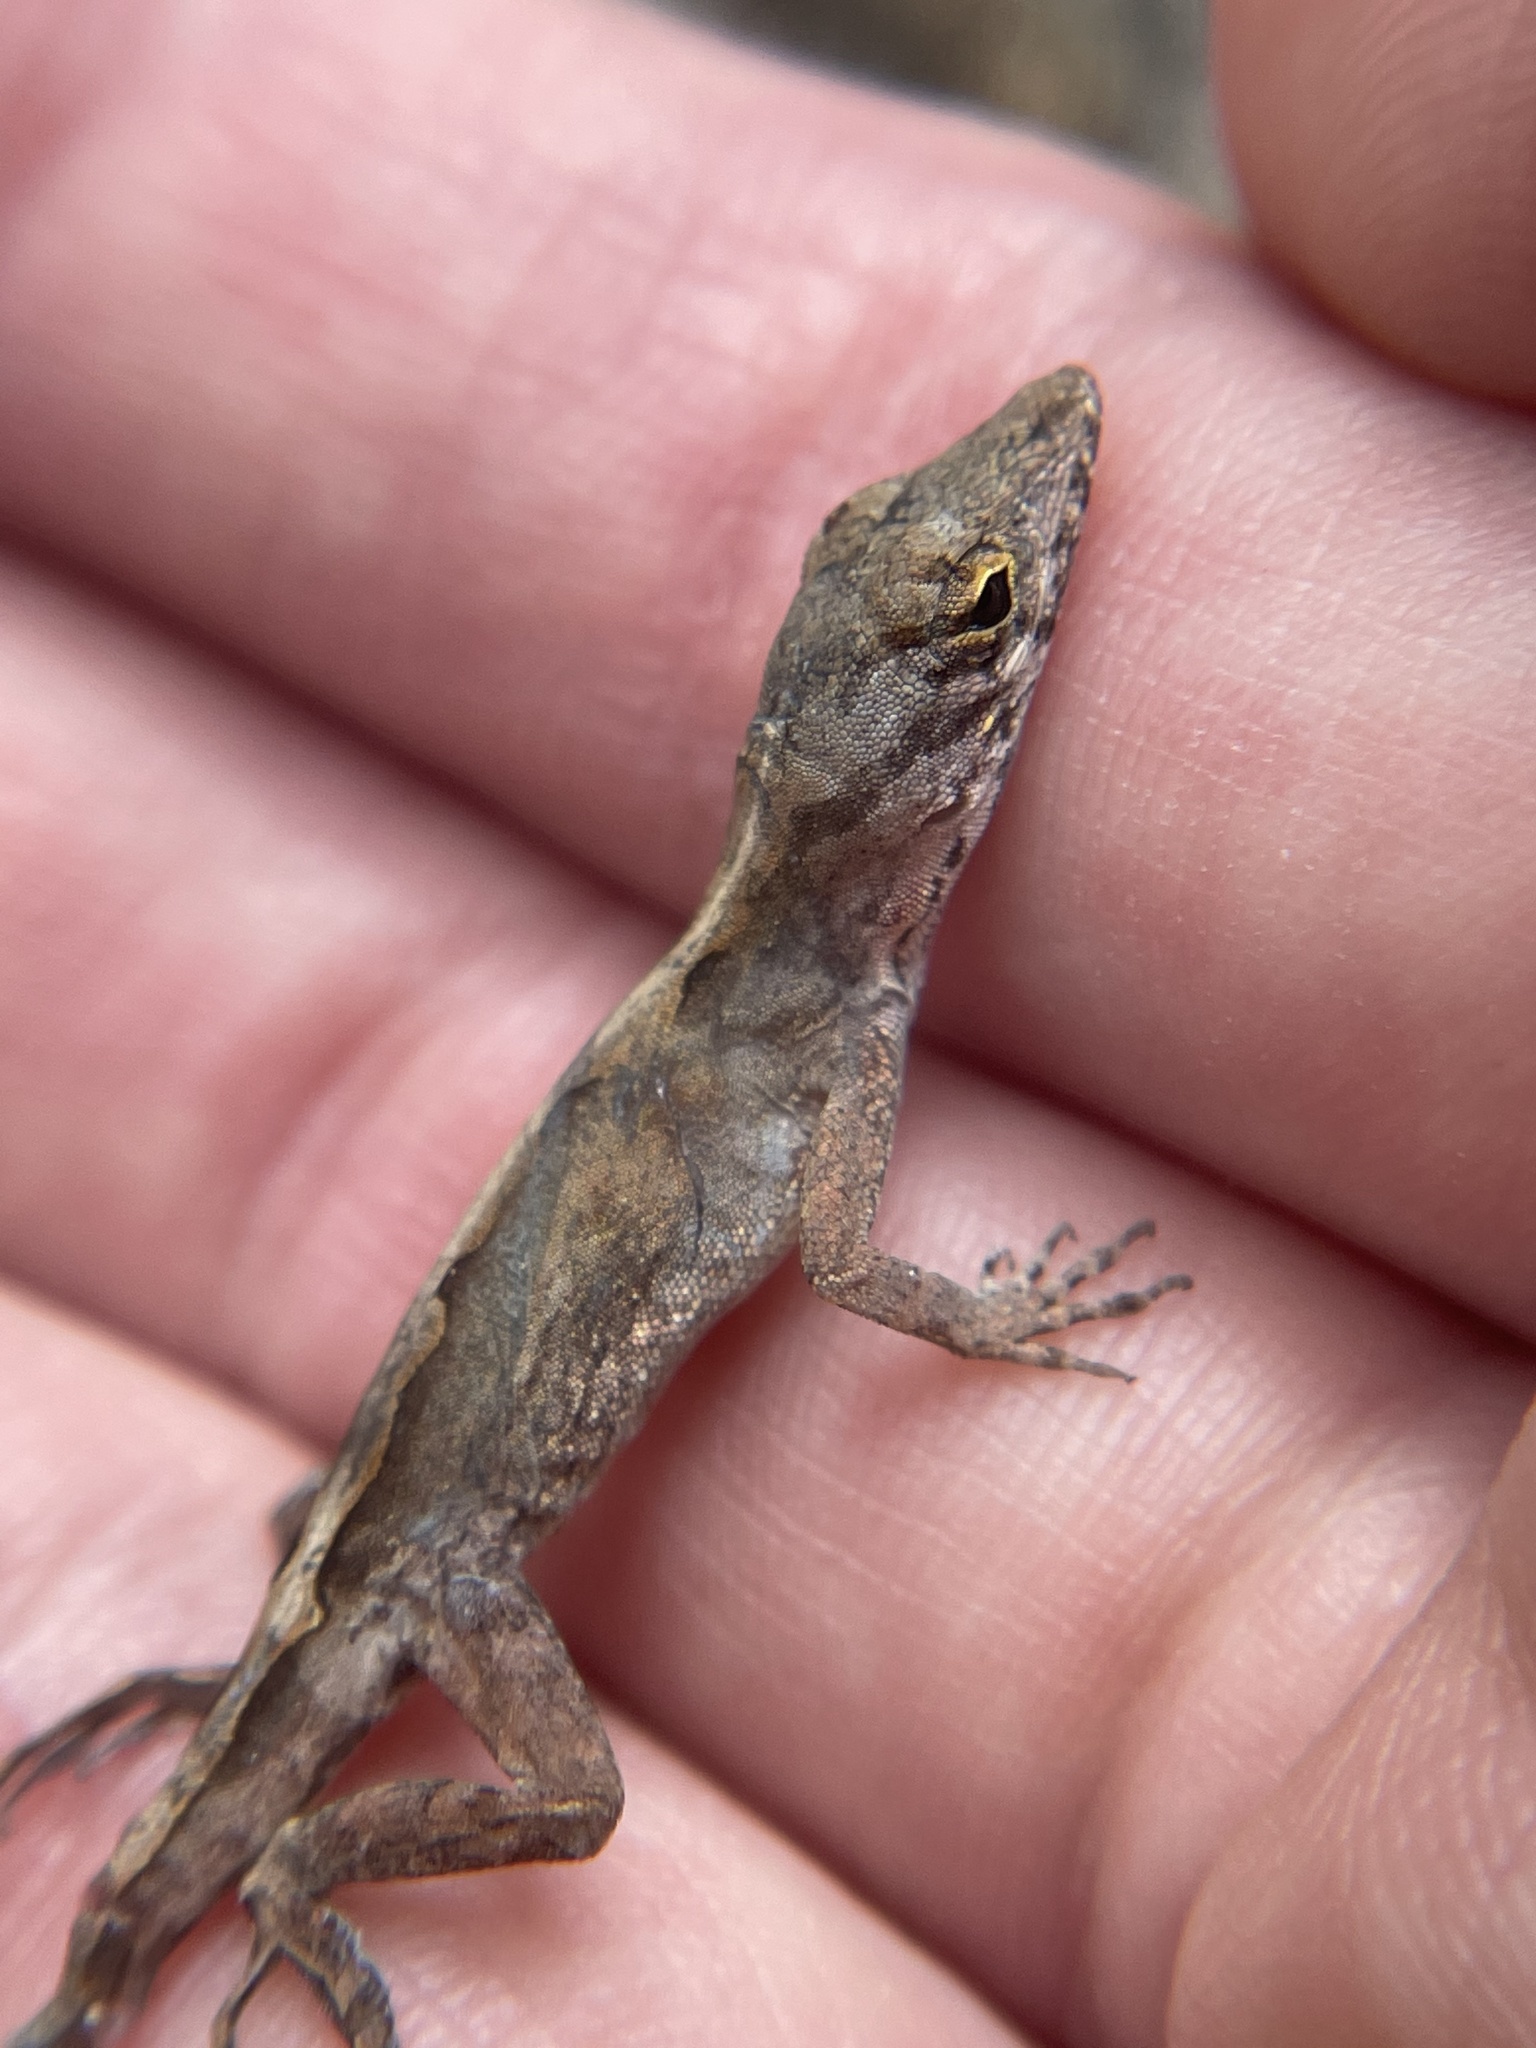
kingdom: Animalia
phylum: Chordata
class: Squamata
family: Dactyloidae
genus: Anolis
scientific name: Anolis sagrei
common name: Brown anole
